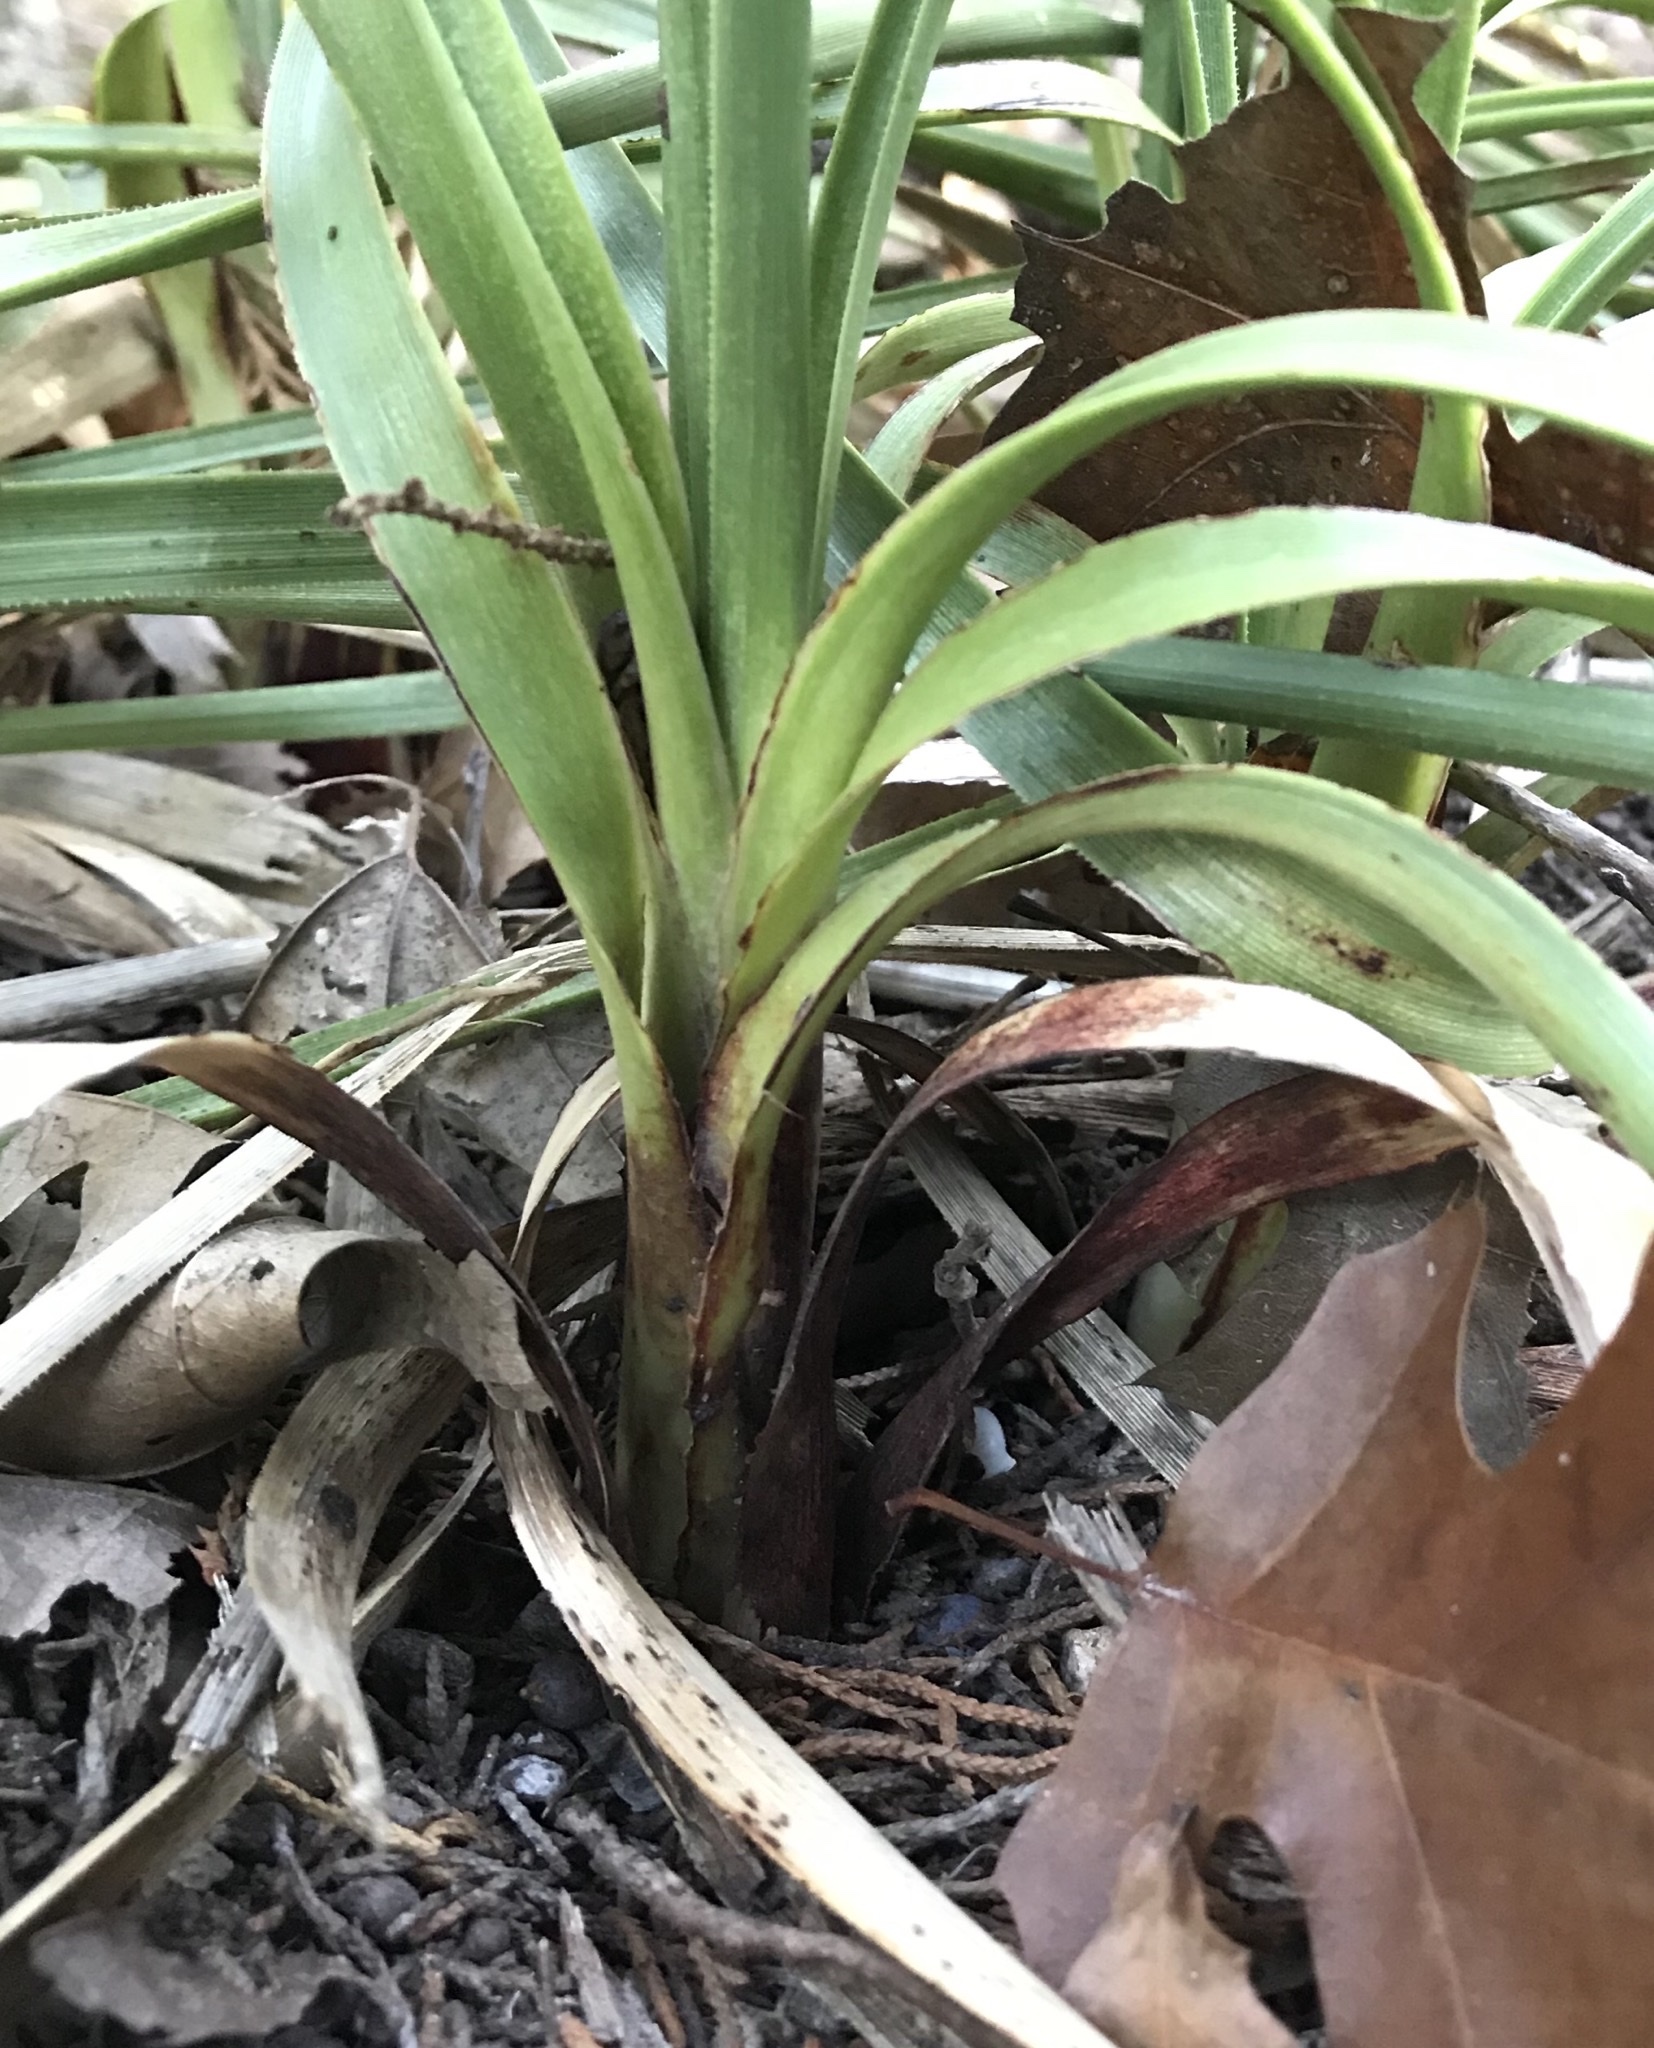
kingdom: Plantae
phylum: Tracheophyta
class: Liliopsida
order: Asparagales
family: Asparagaceae
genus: Nolina
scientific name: Nolina texana
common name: Texas sacahuiste
